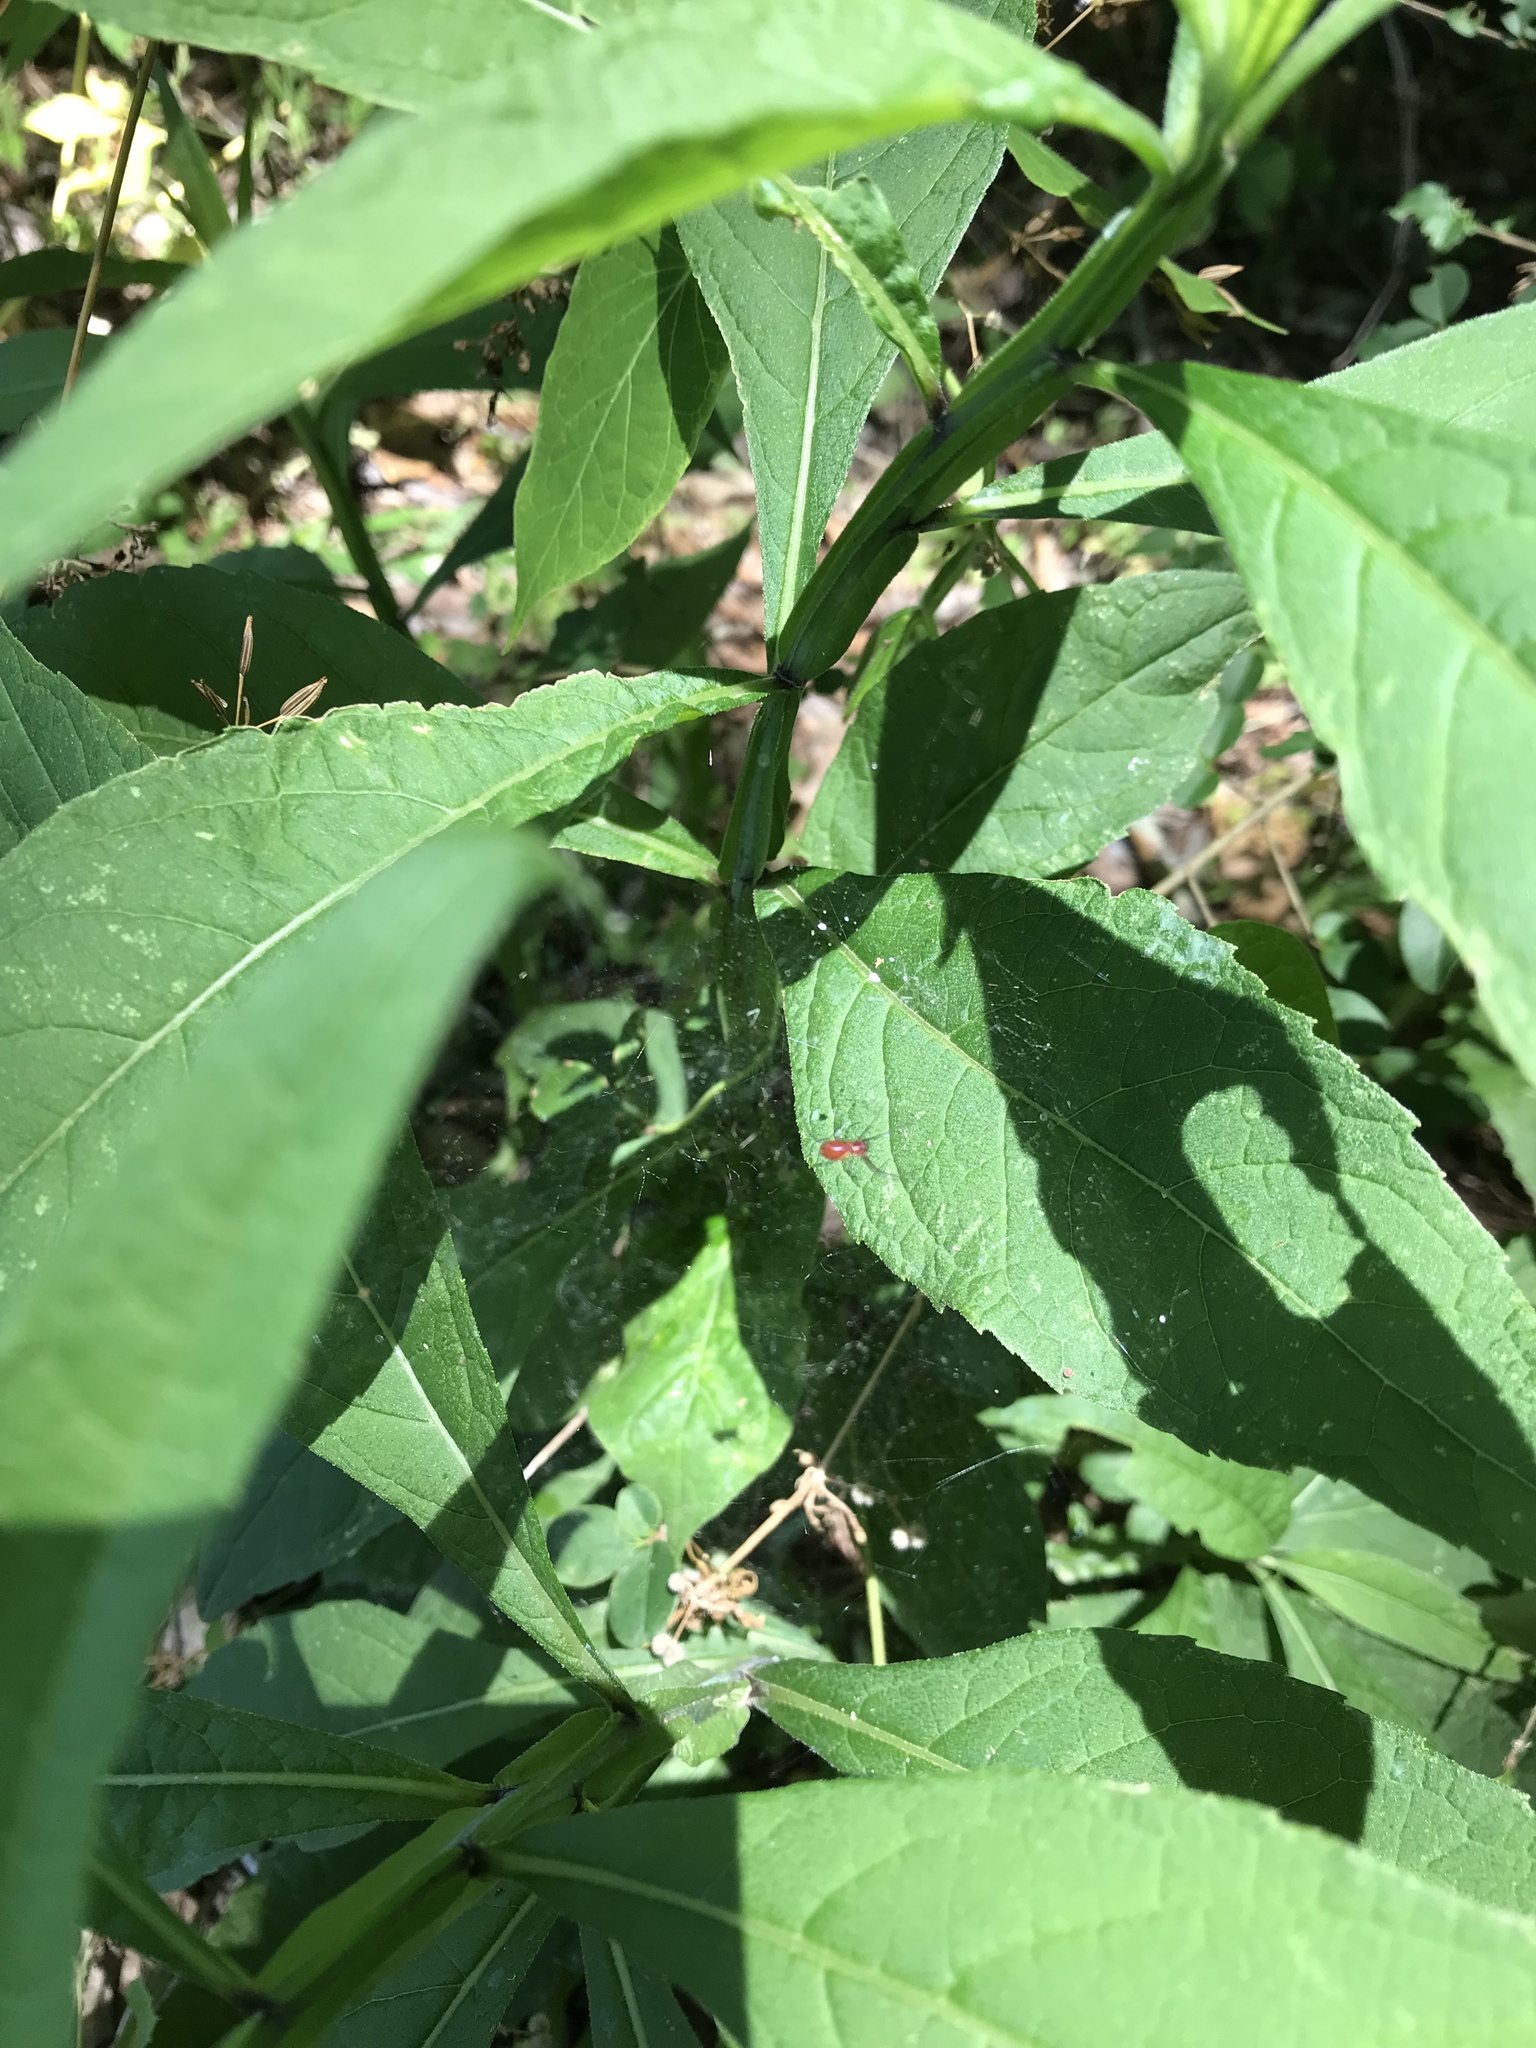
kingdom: Animalia
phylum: Arthropoda
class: Arachnida
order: Araneae
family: Linyphiidae
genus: Florinda
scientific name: Florinda coccinea
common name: Black-tailed red sheetweaver
